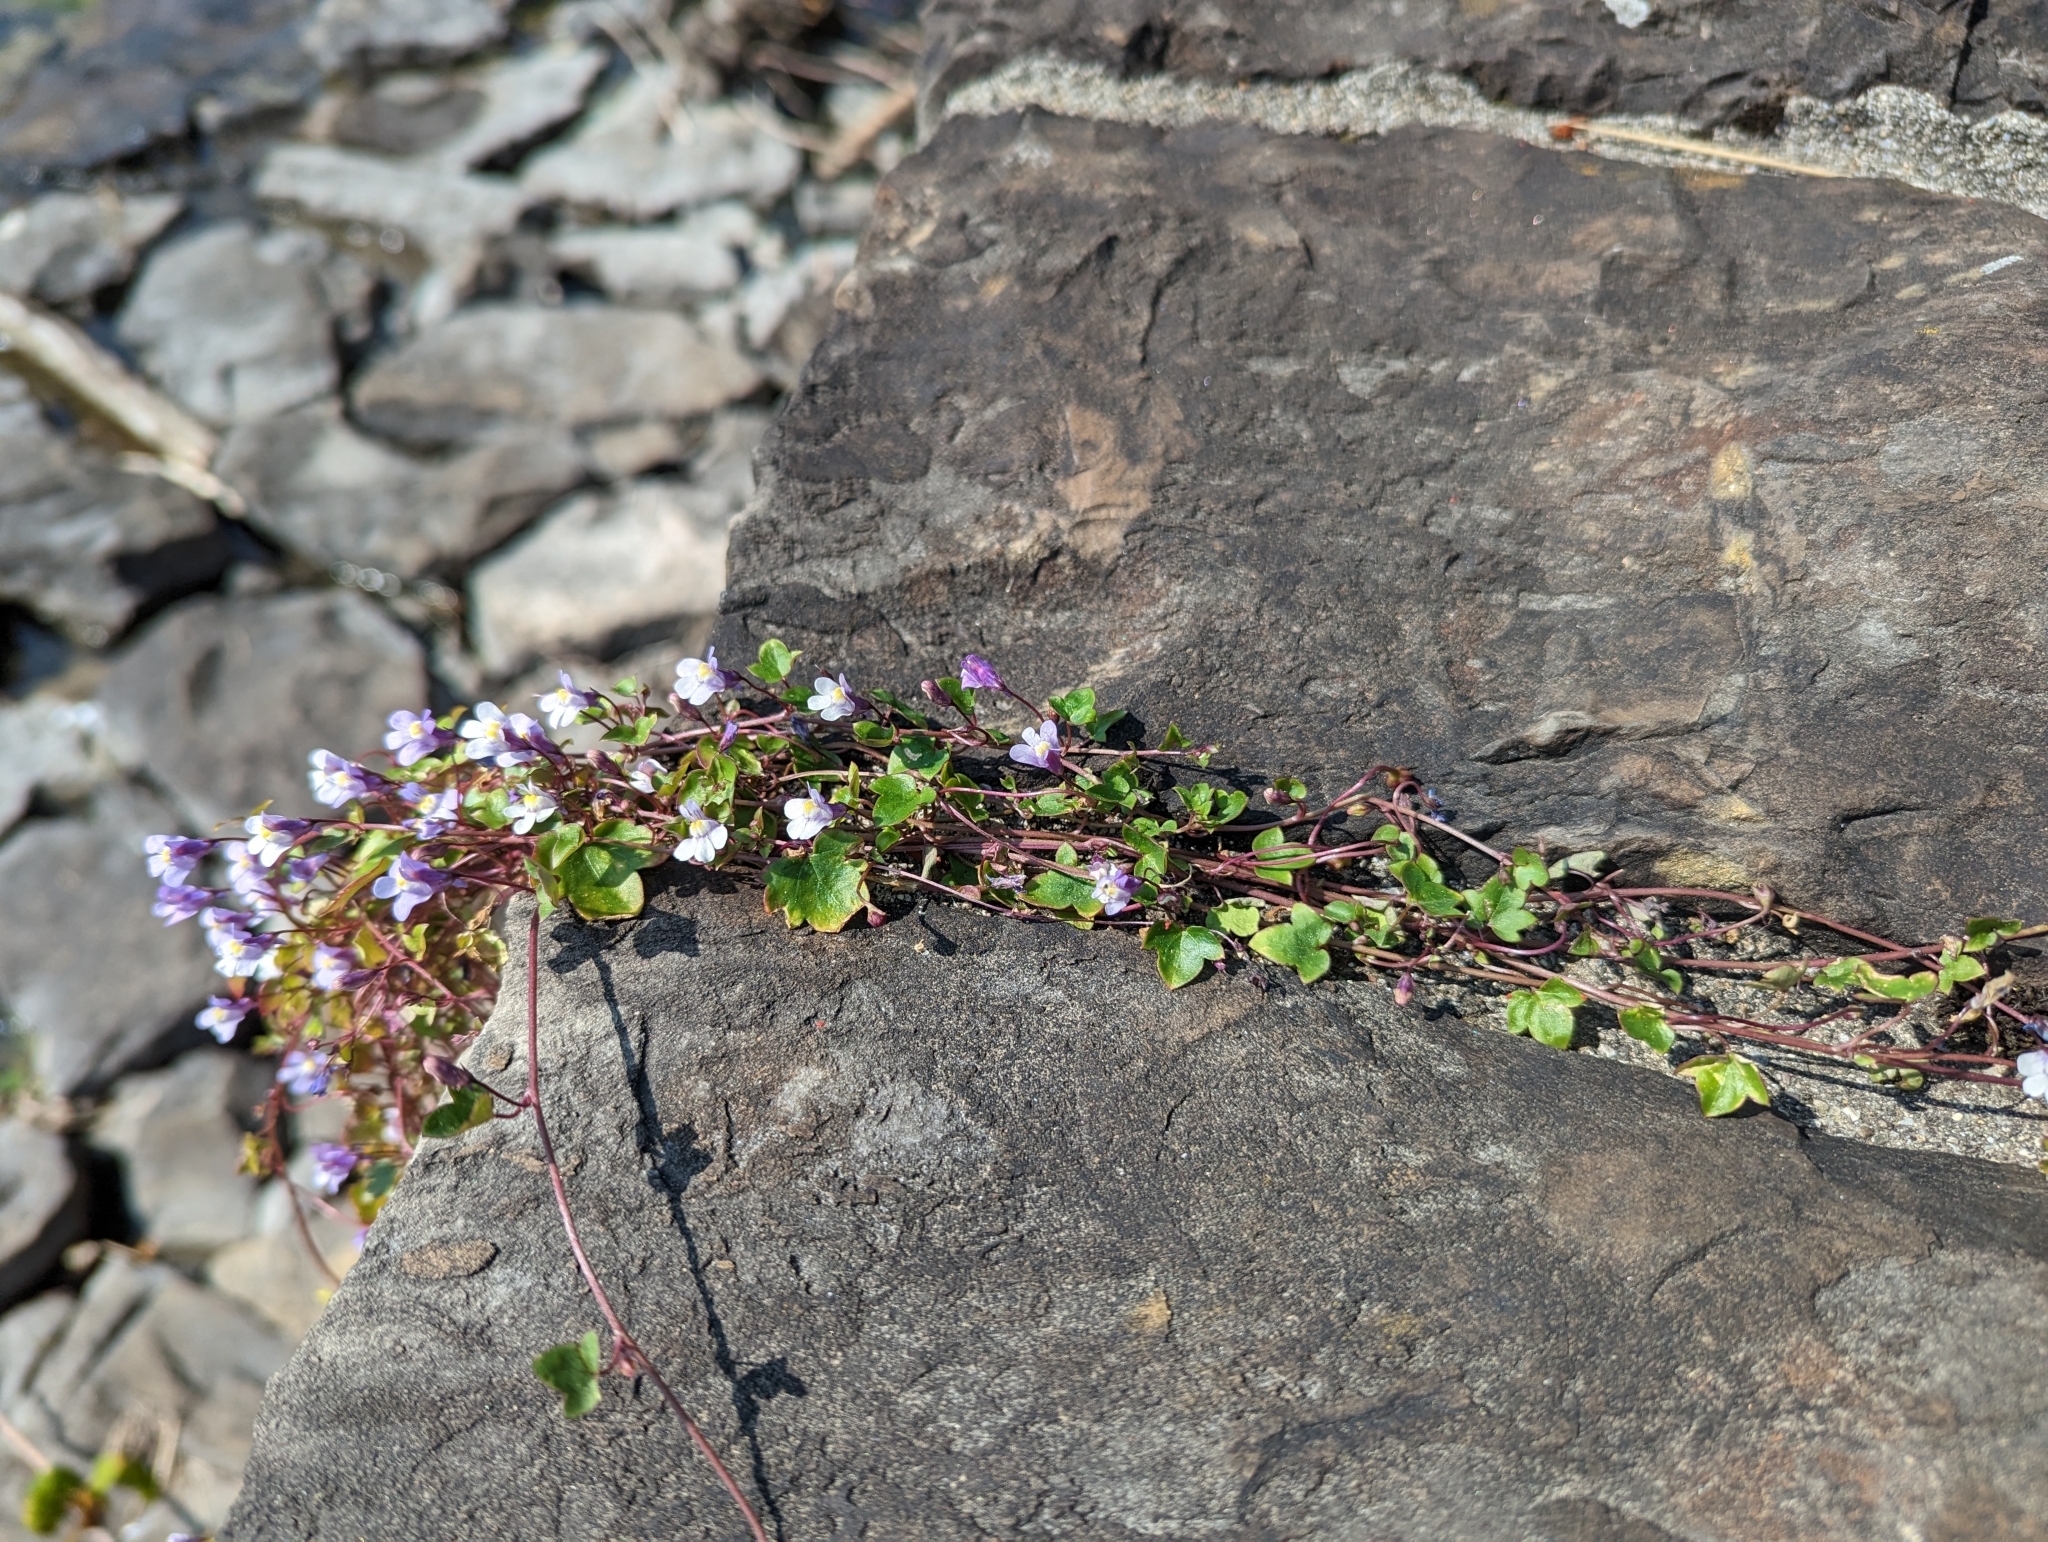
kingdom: Plantae
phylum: Tracheophyta
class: Magnoliopsida
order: Lamiales
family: Plantaginaceae
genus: Cymbalaria
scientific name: Cymbalaria muralis
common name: Ivy-leaved toadflax
